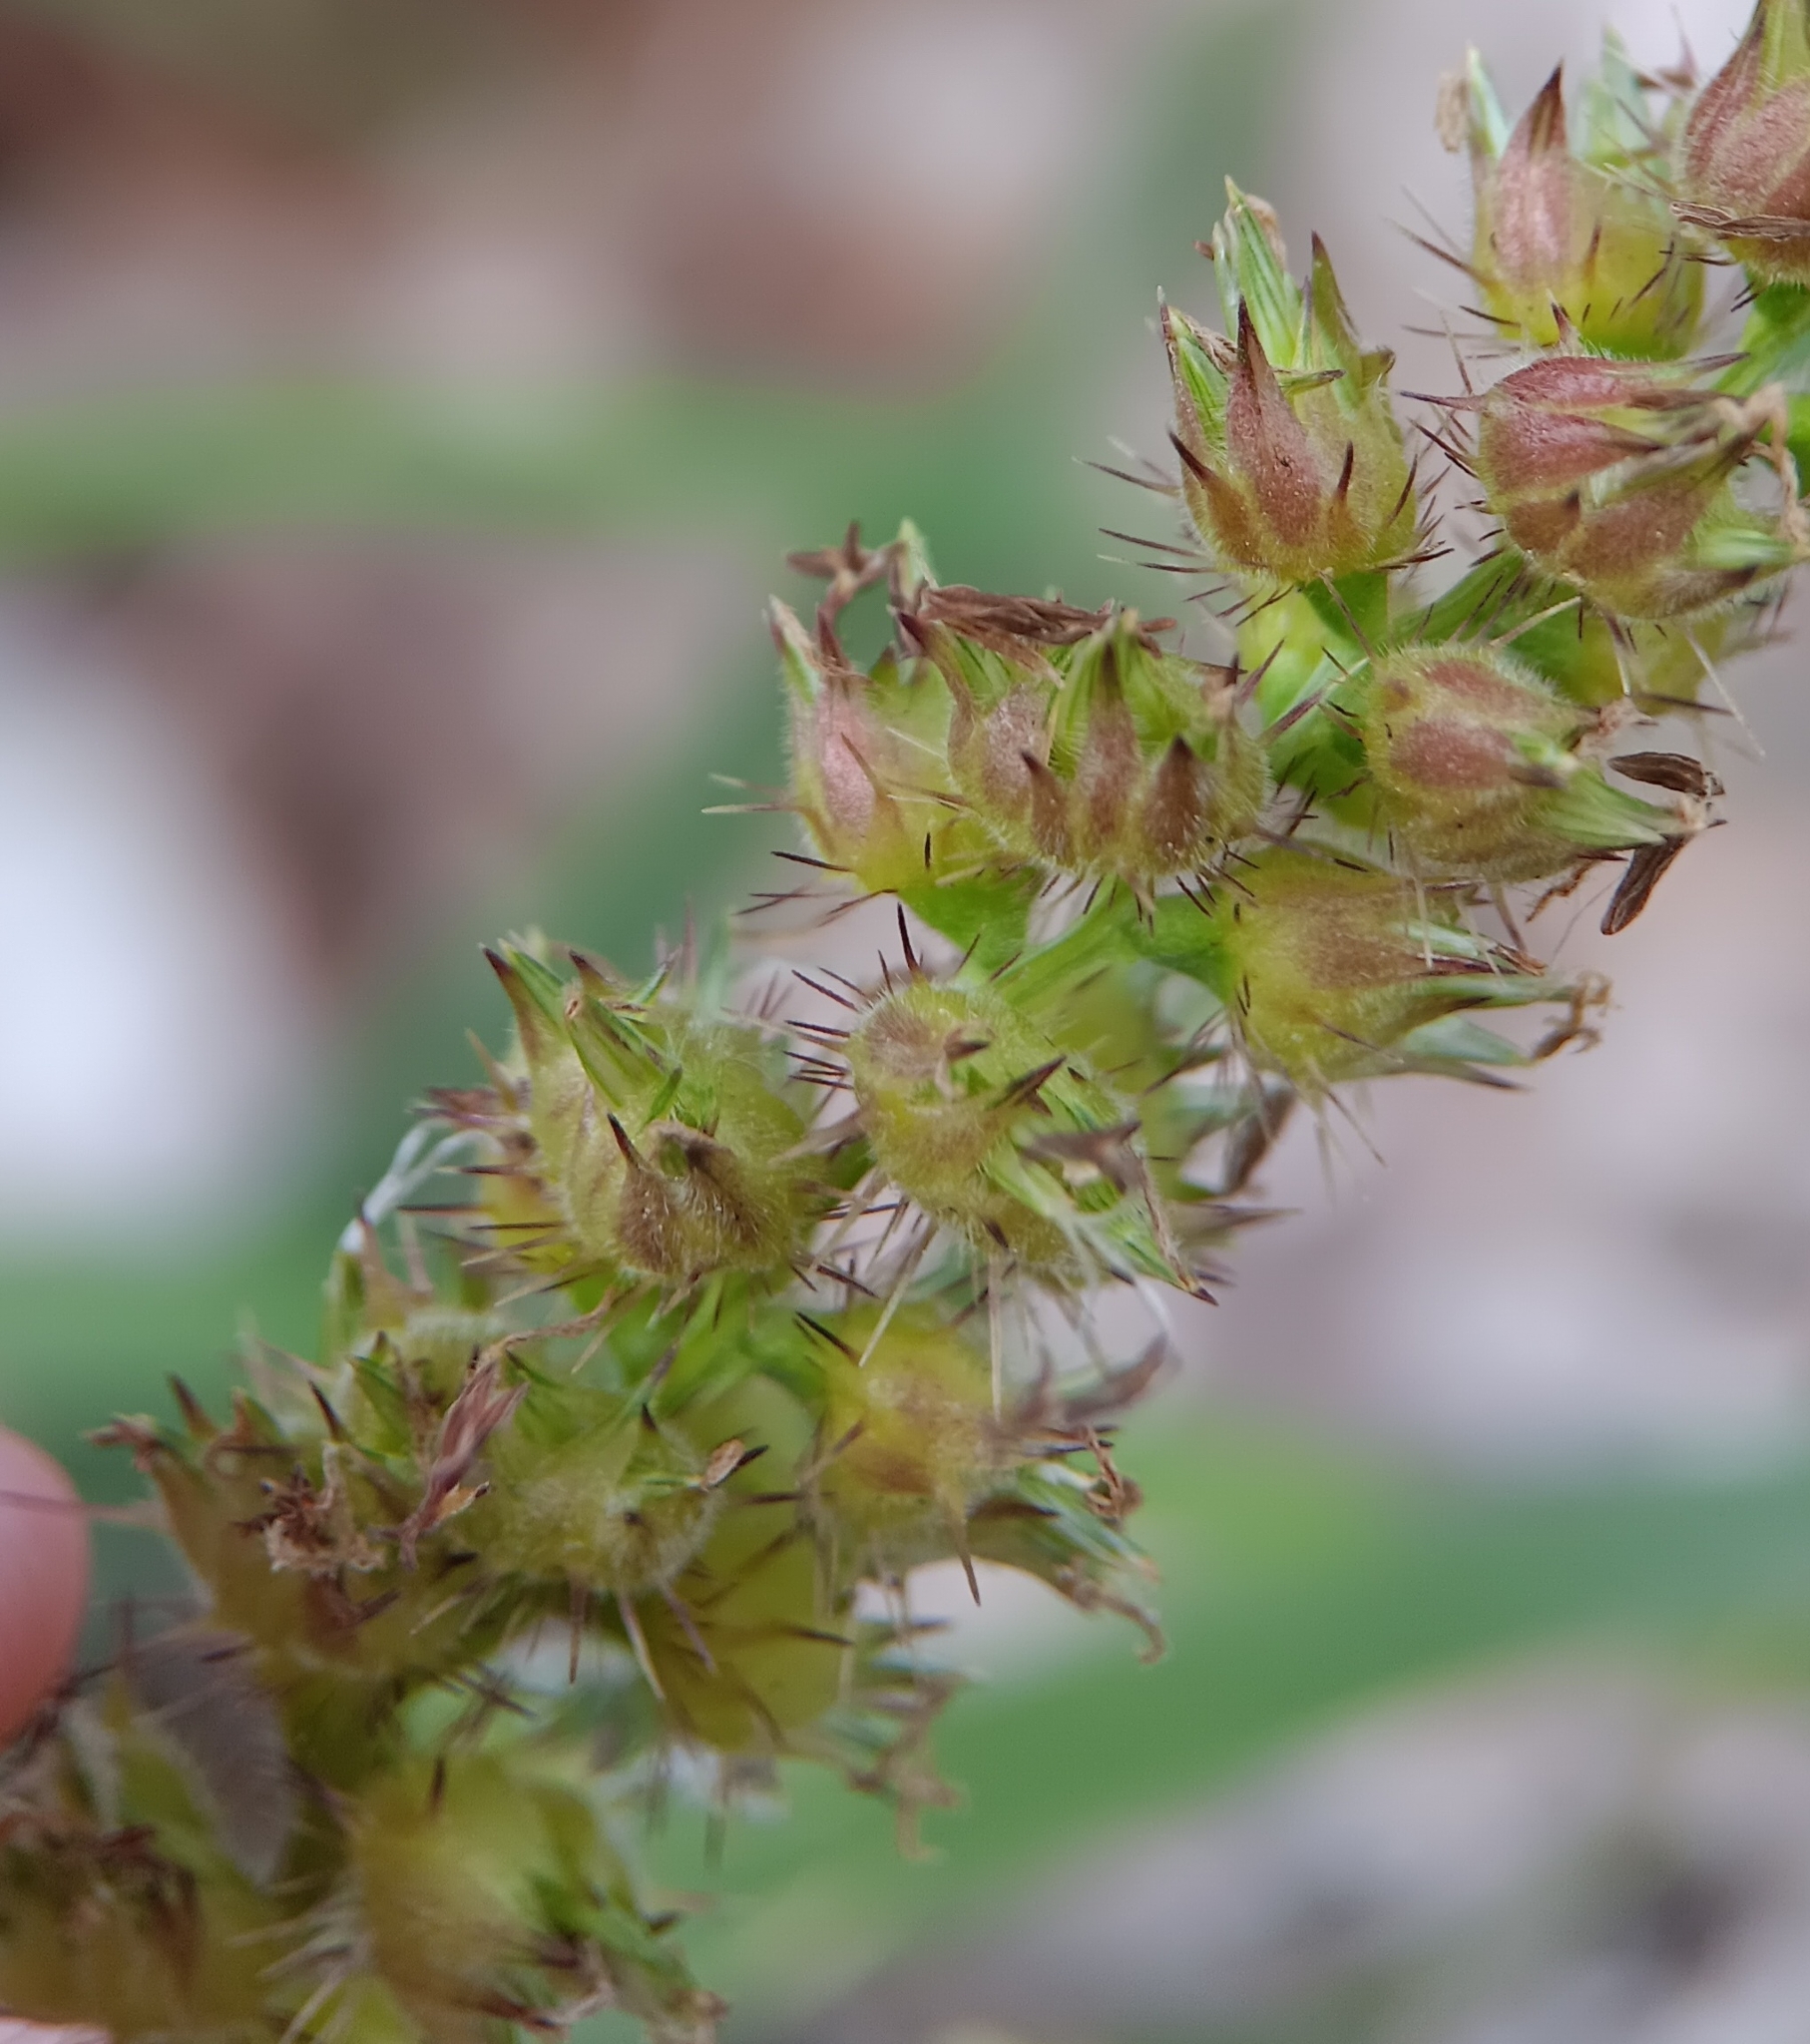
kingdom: Plantae
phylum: Tracheophyta
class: Liliopsida
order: Poales
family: Poaceae
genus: Cenchrus
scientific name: Cenchrus echinatus
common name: Southern sandbur
